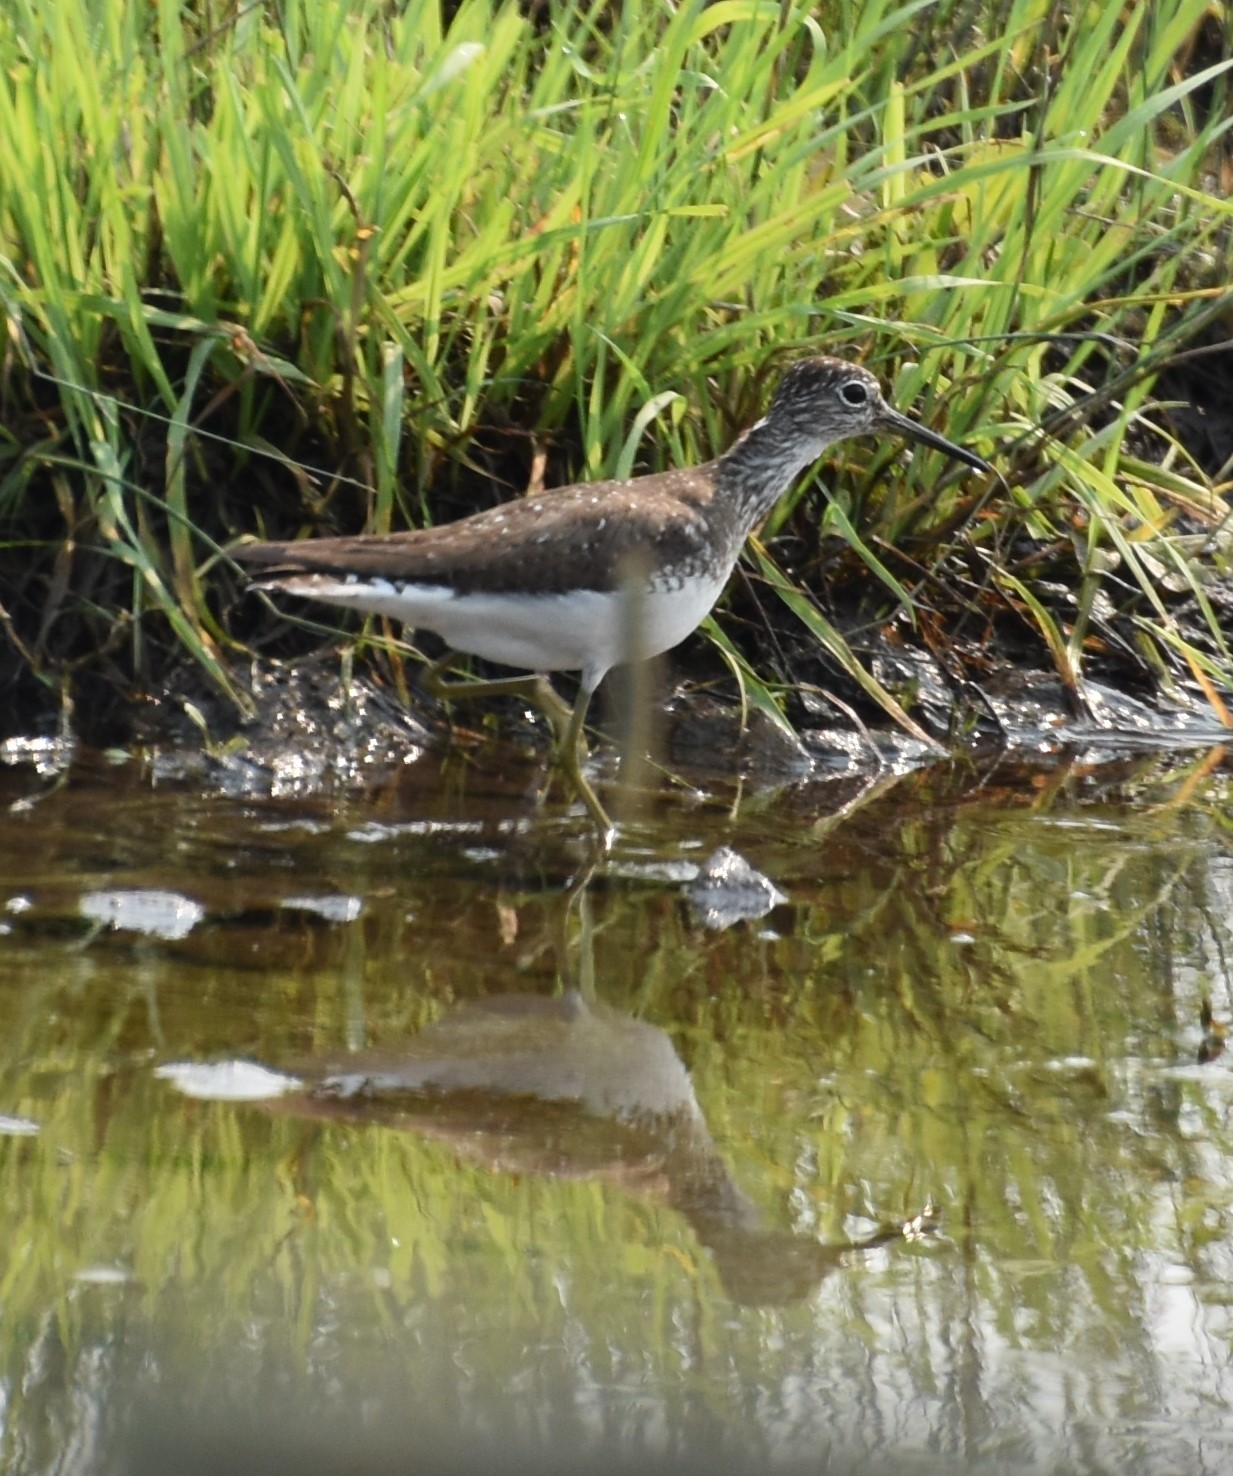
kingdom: Animalia
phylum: Chordata
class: Aves
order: Charadriiformes
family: Scolopacidae
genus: Tringa
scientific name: Tringa solitaria
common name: Solitary sandpiper
